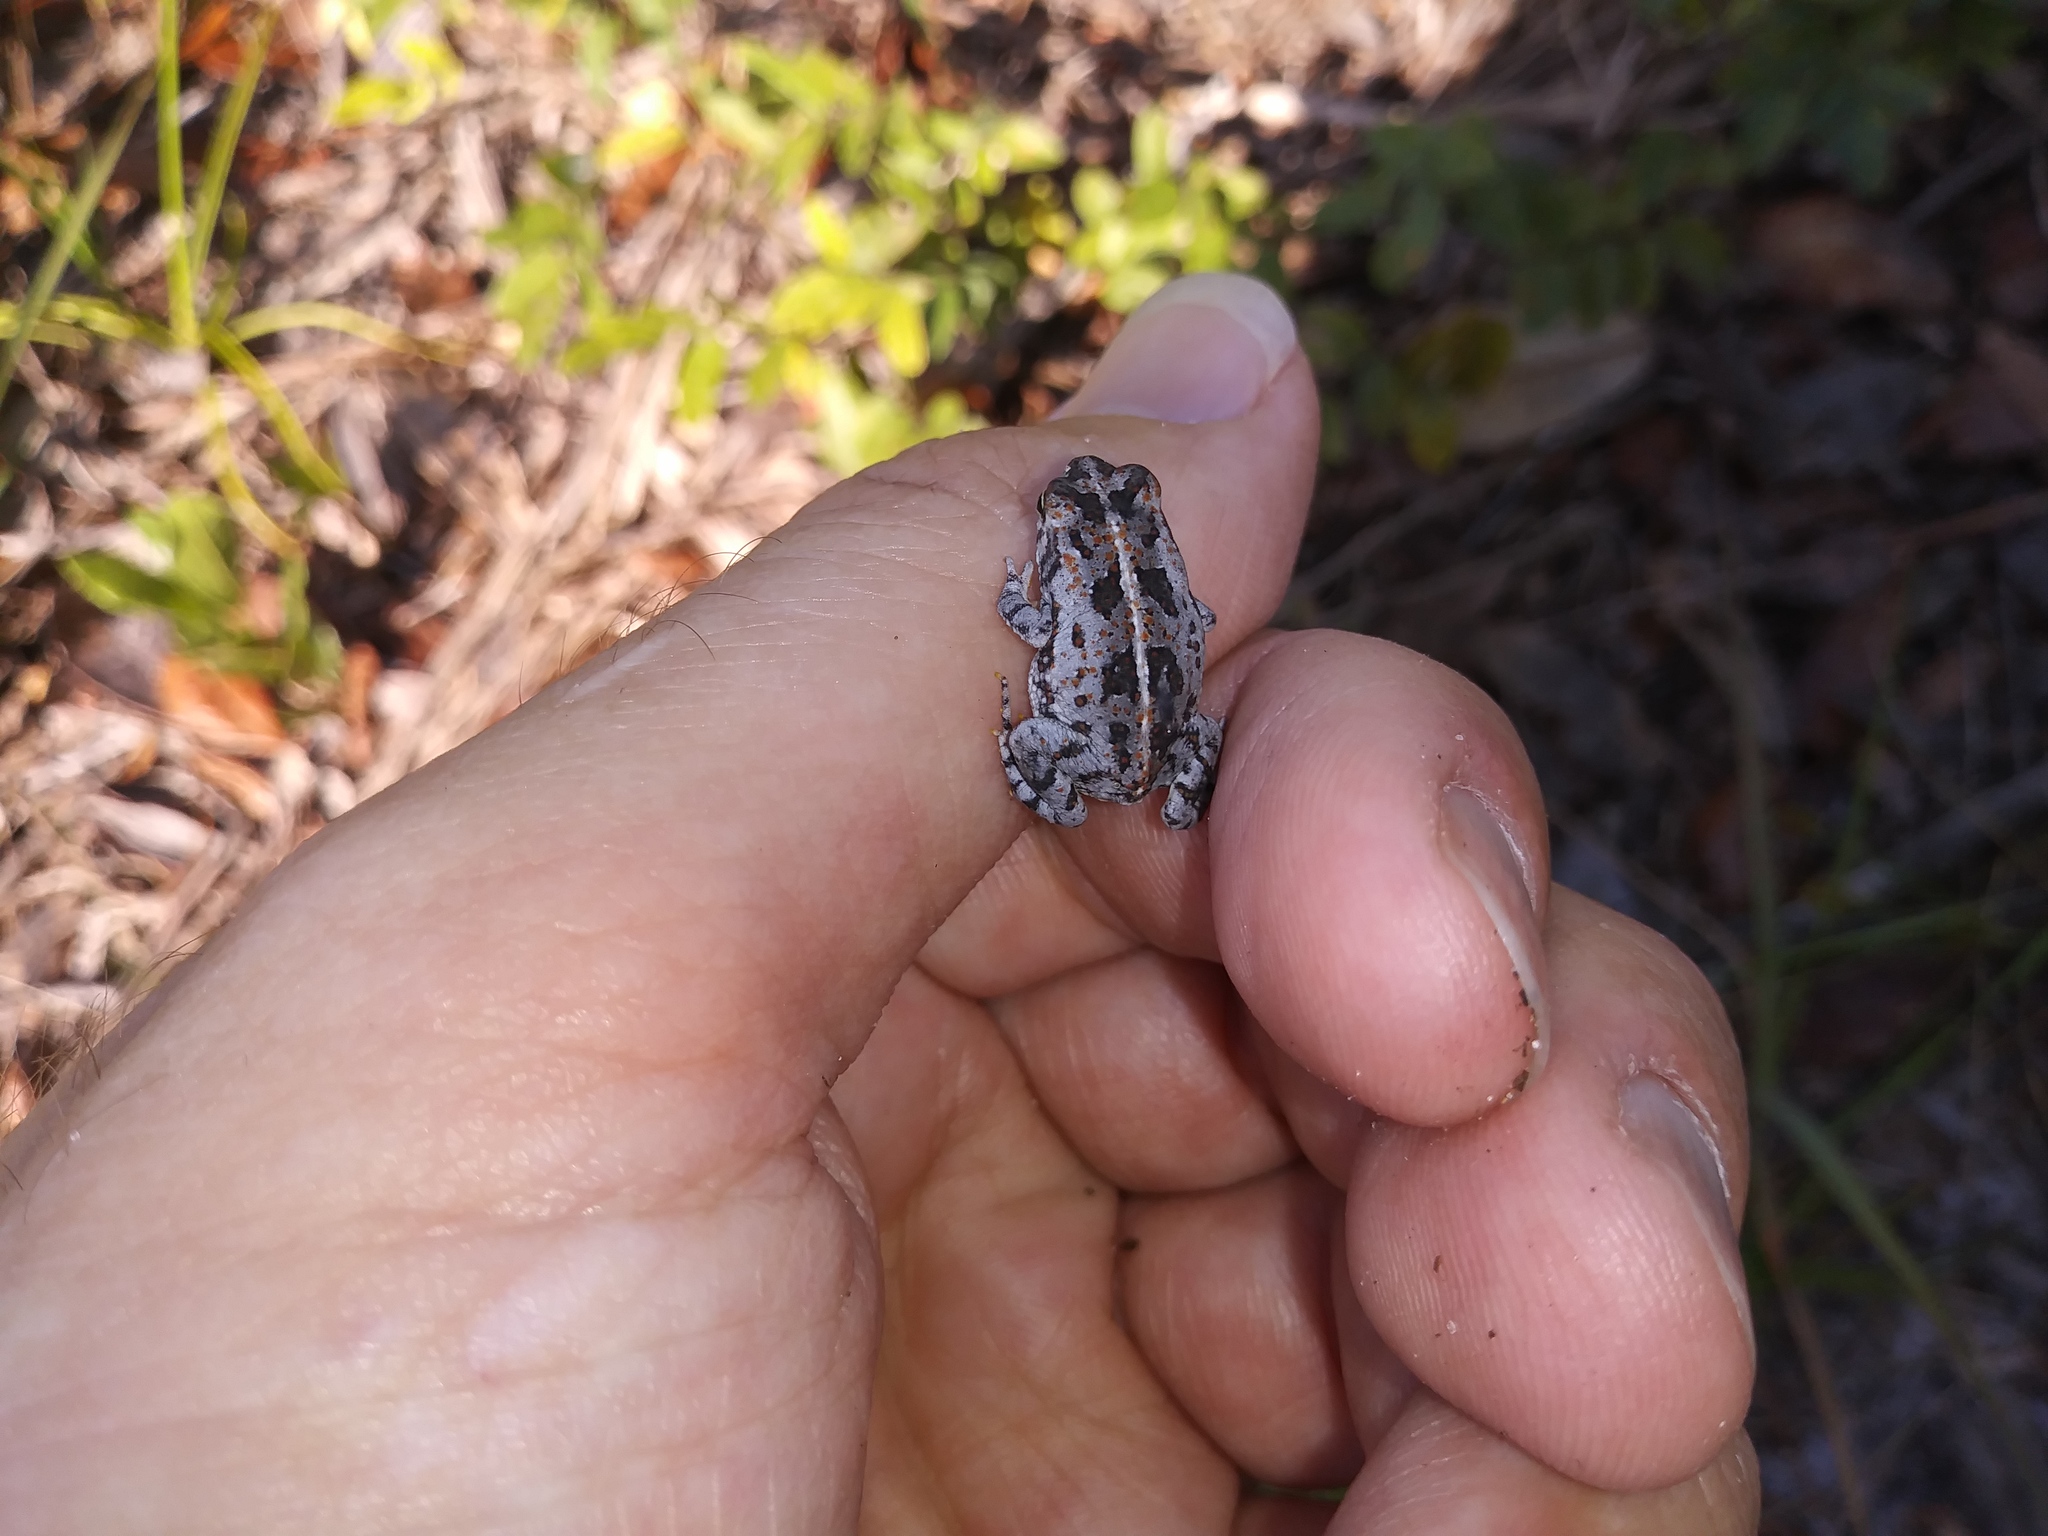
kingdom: Animalia
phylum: Chordata
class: Amphibia
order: Anura
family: Bufonidae
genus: Anaxyrus
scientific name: Anaxyrus quercicus
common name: Oak toad
